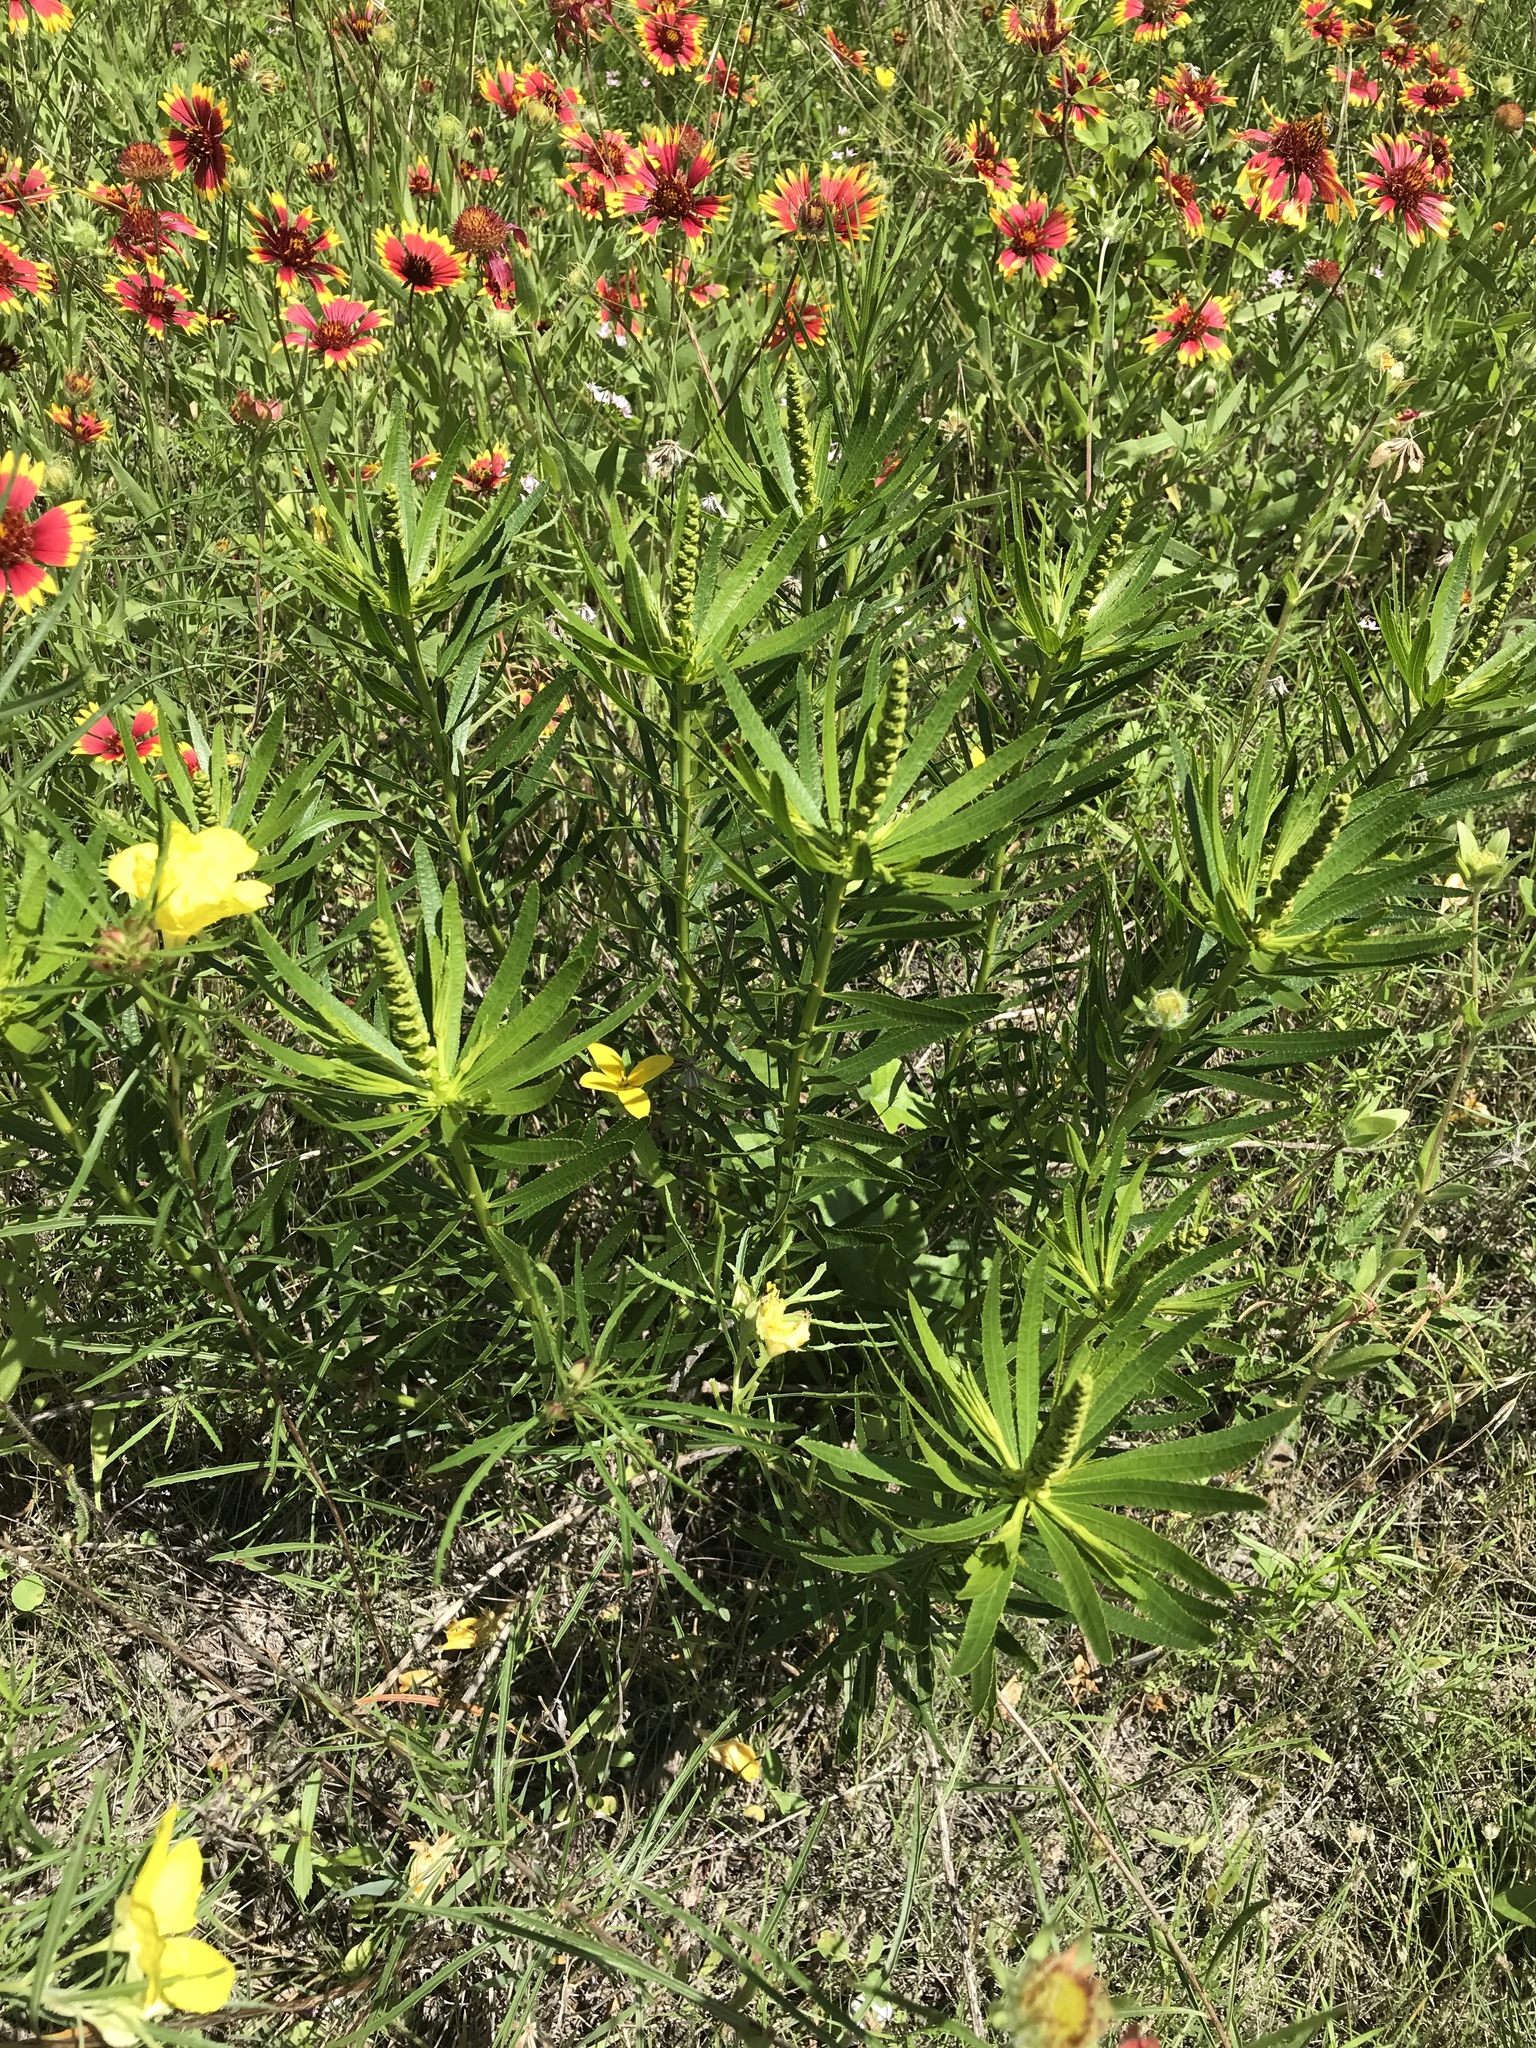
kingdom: Plantae
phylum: Tracheophyta
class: Magnoliopsida
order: Malpighiales
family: Euphorbiaceae
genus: Stillingia
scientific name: Stillingia texana
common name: Texas stillingia
